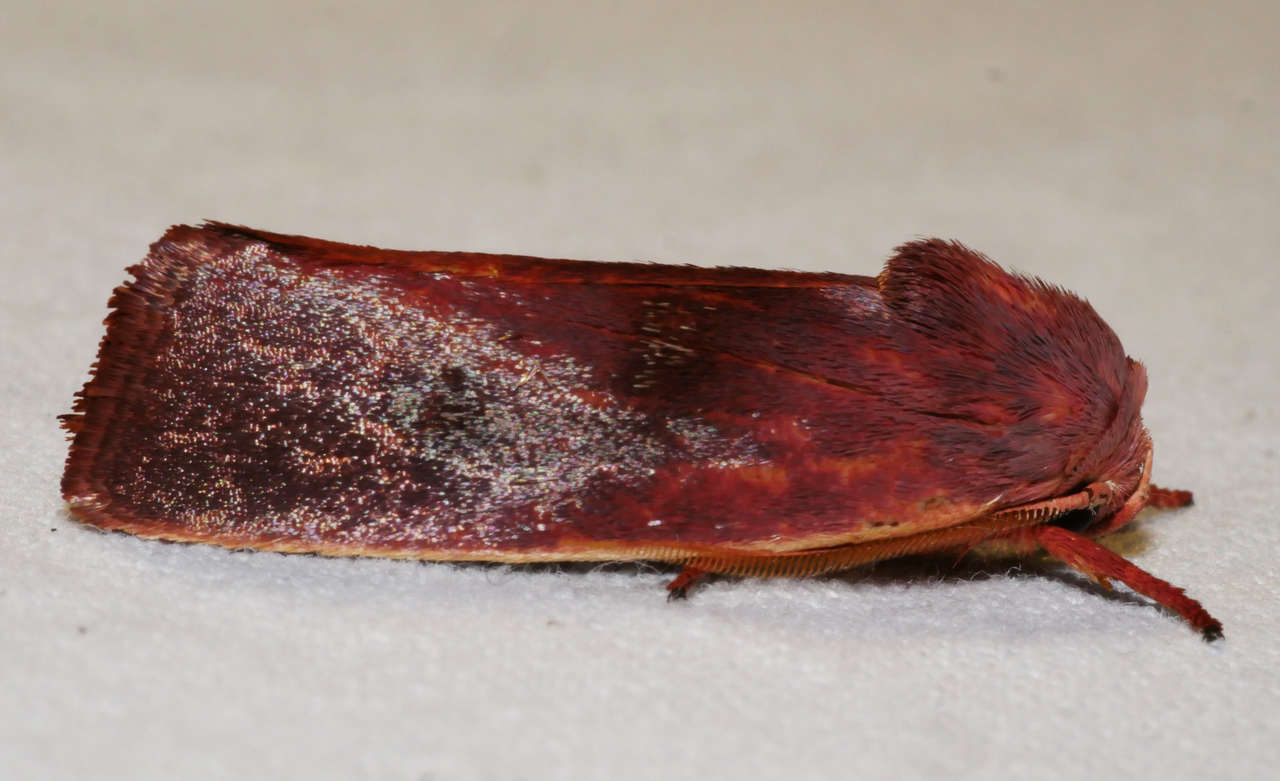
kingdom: Animalia
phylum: Arthropoda
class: Insecta
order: Lepidoptera
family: Xyloryctidae
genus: Cryptophasa
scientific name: Cryptophasa rubescens
